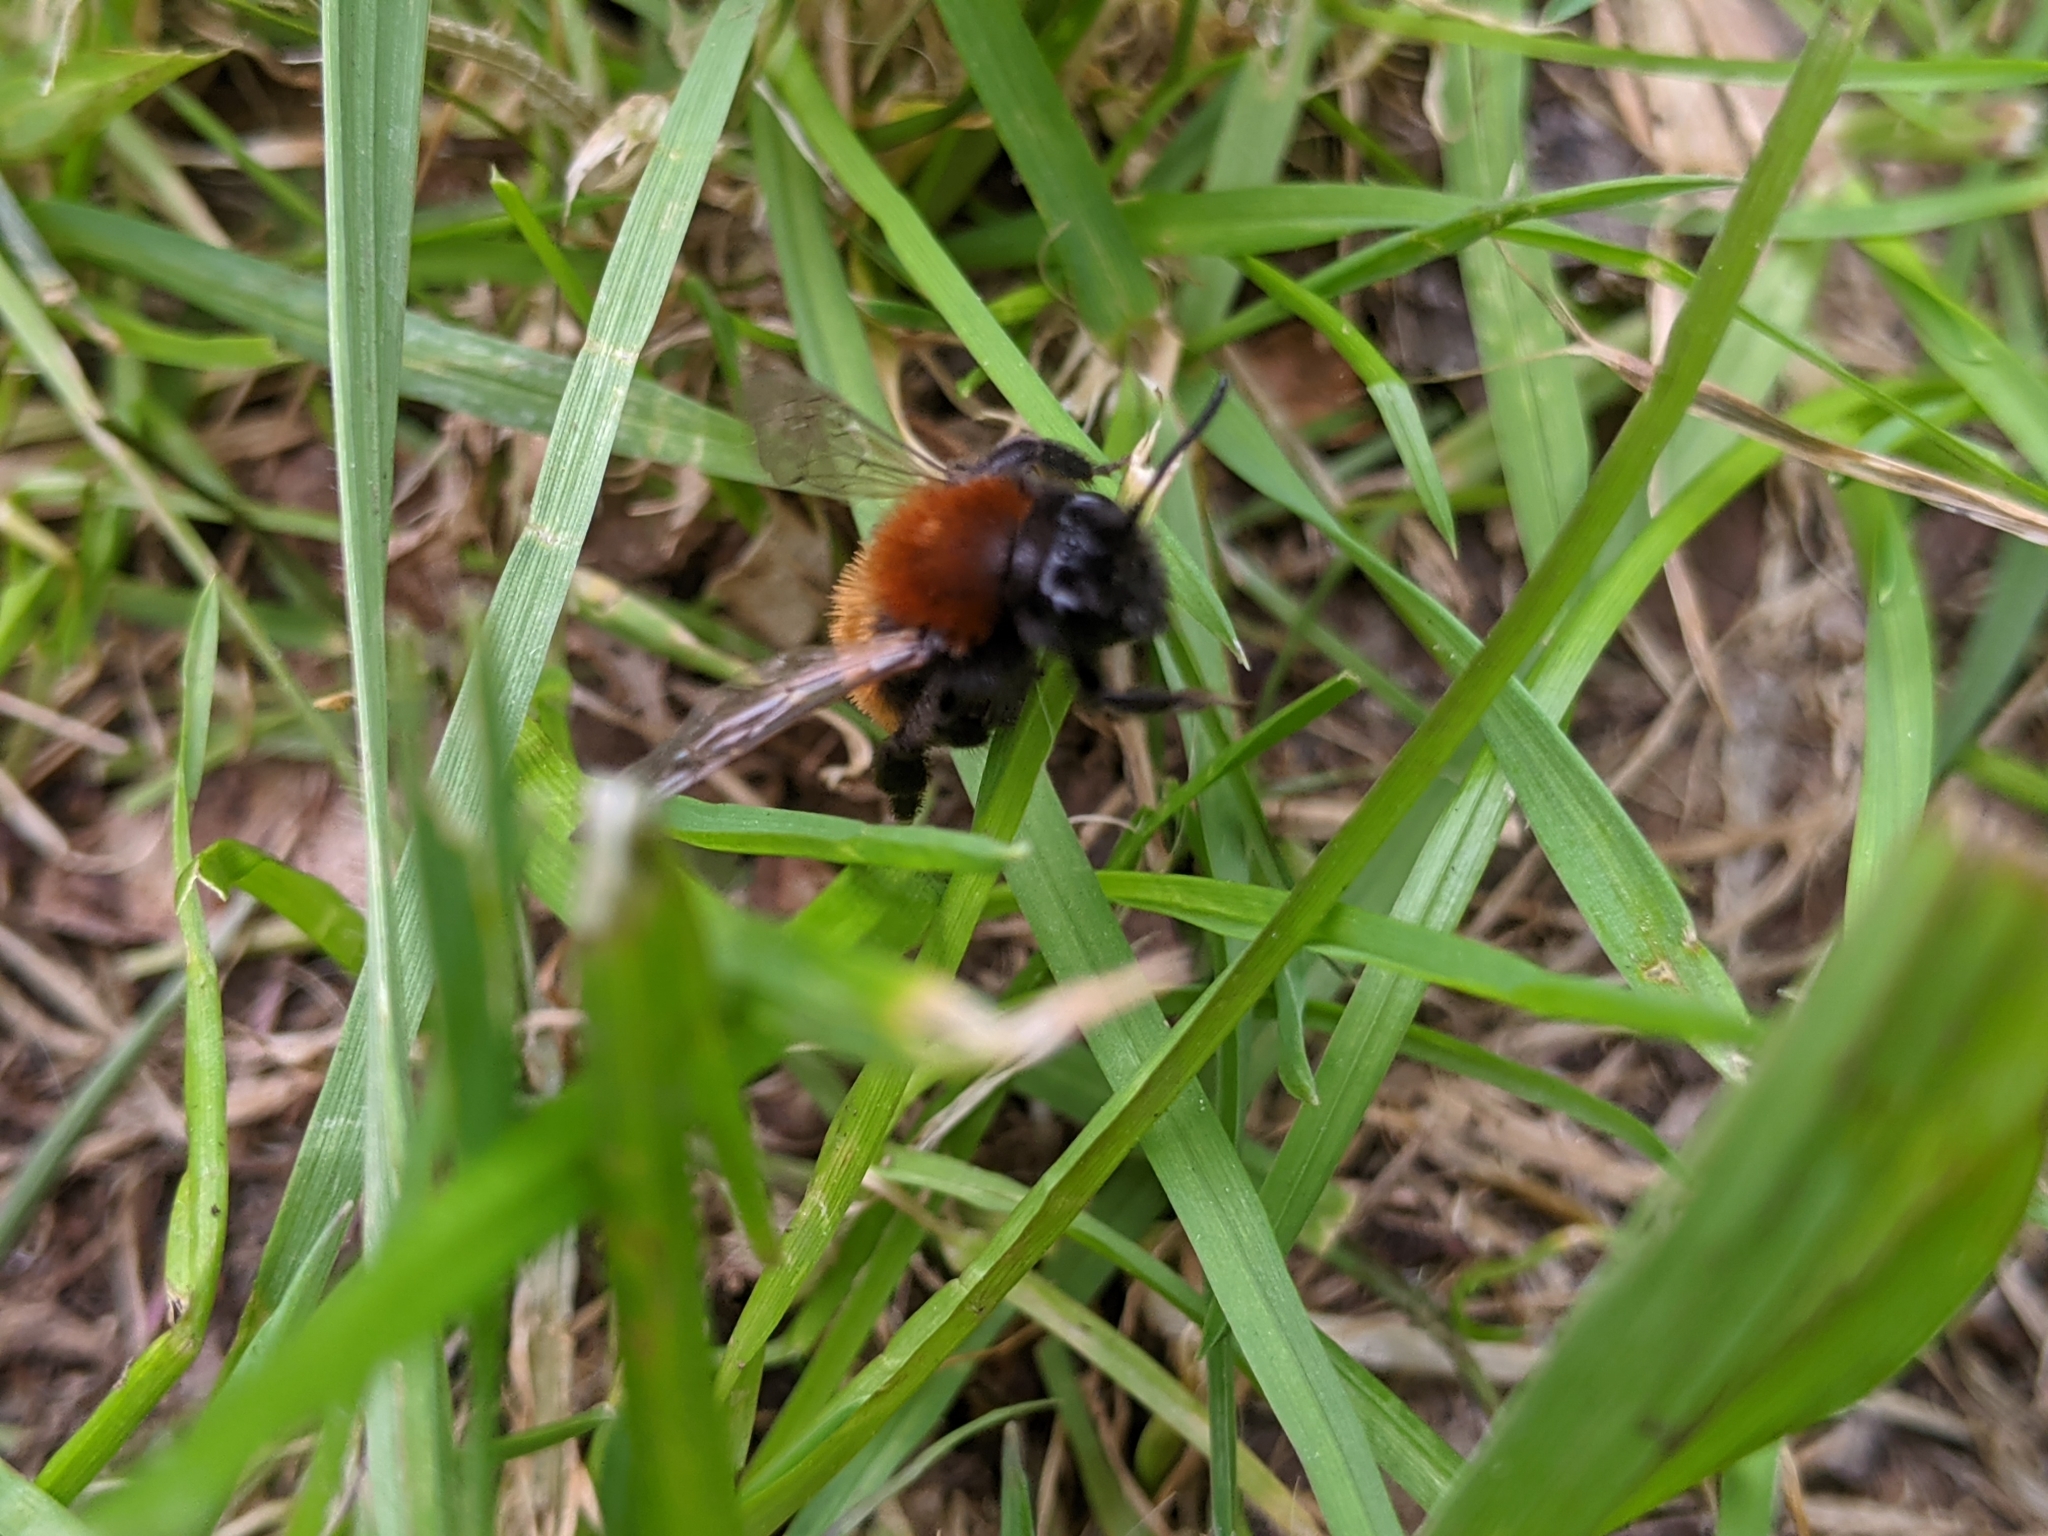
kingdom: Animalia
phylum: Arthropoda
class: Insecta
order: Hymenoptera
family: Andrenidae
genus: Andrena
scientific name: Andrena fulva
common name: Tawny mining bee
